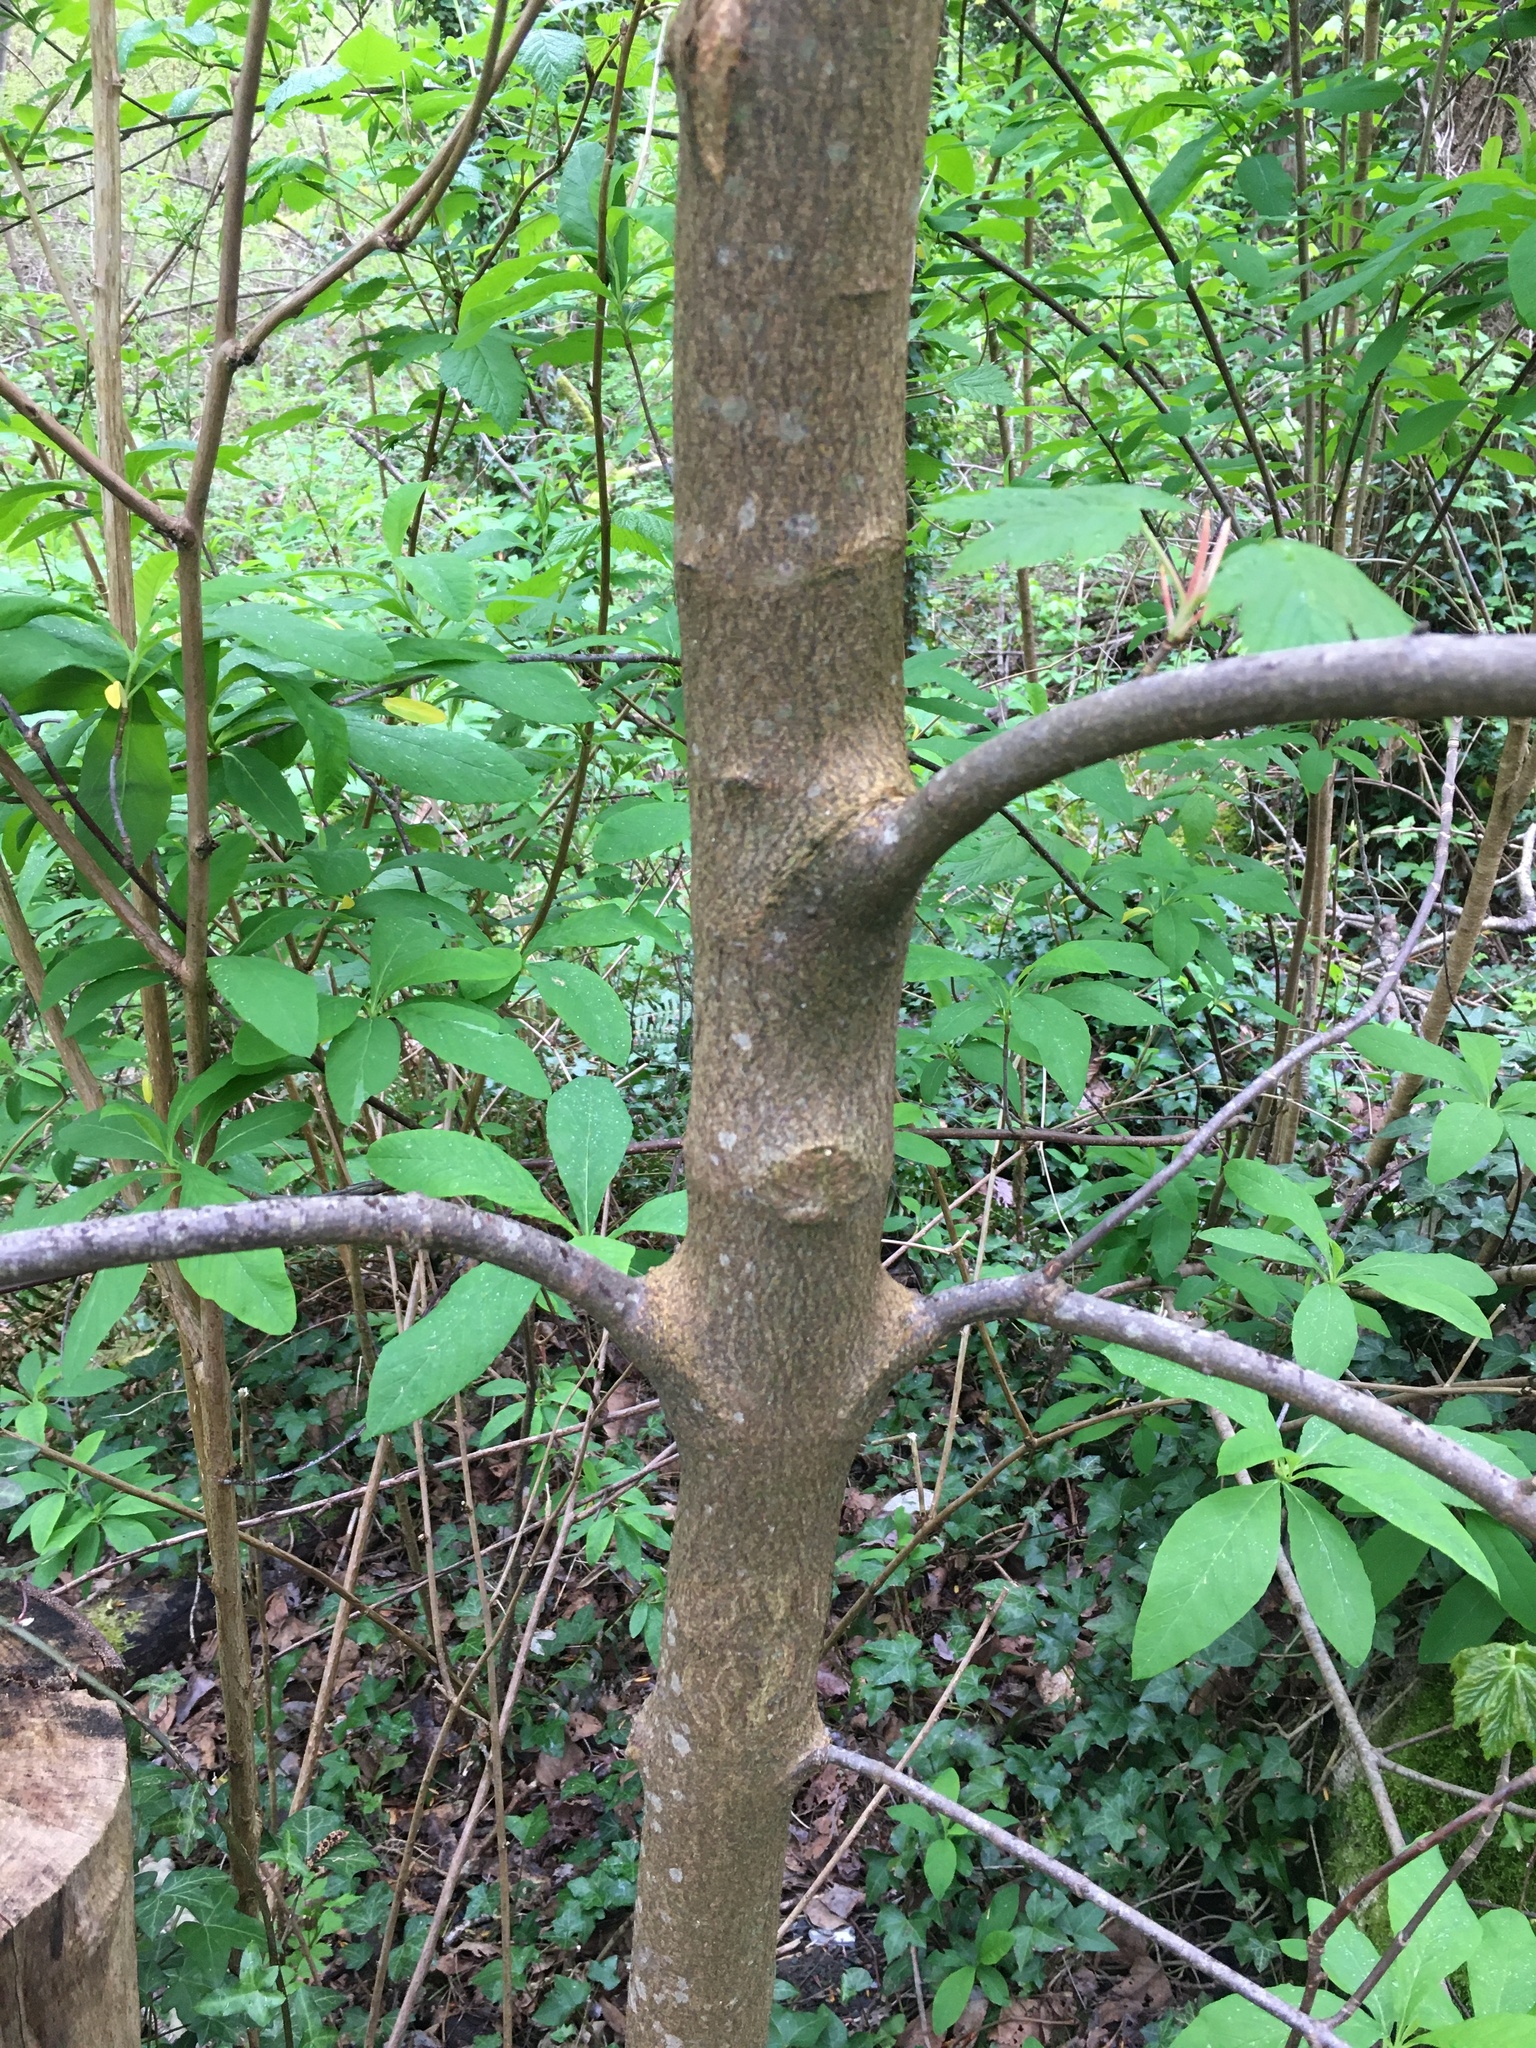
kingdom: Plantae
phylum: Tracheophyta
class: Magnoliopsida
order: Sapindales
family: Sapindaceae
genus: Acer
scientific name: Acer pseudoplatanus
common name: Sycamore
